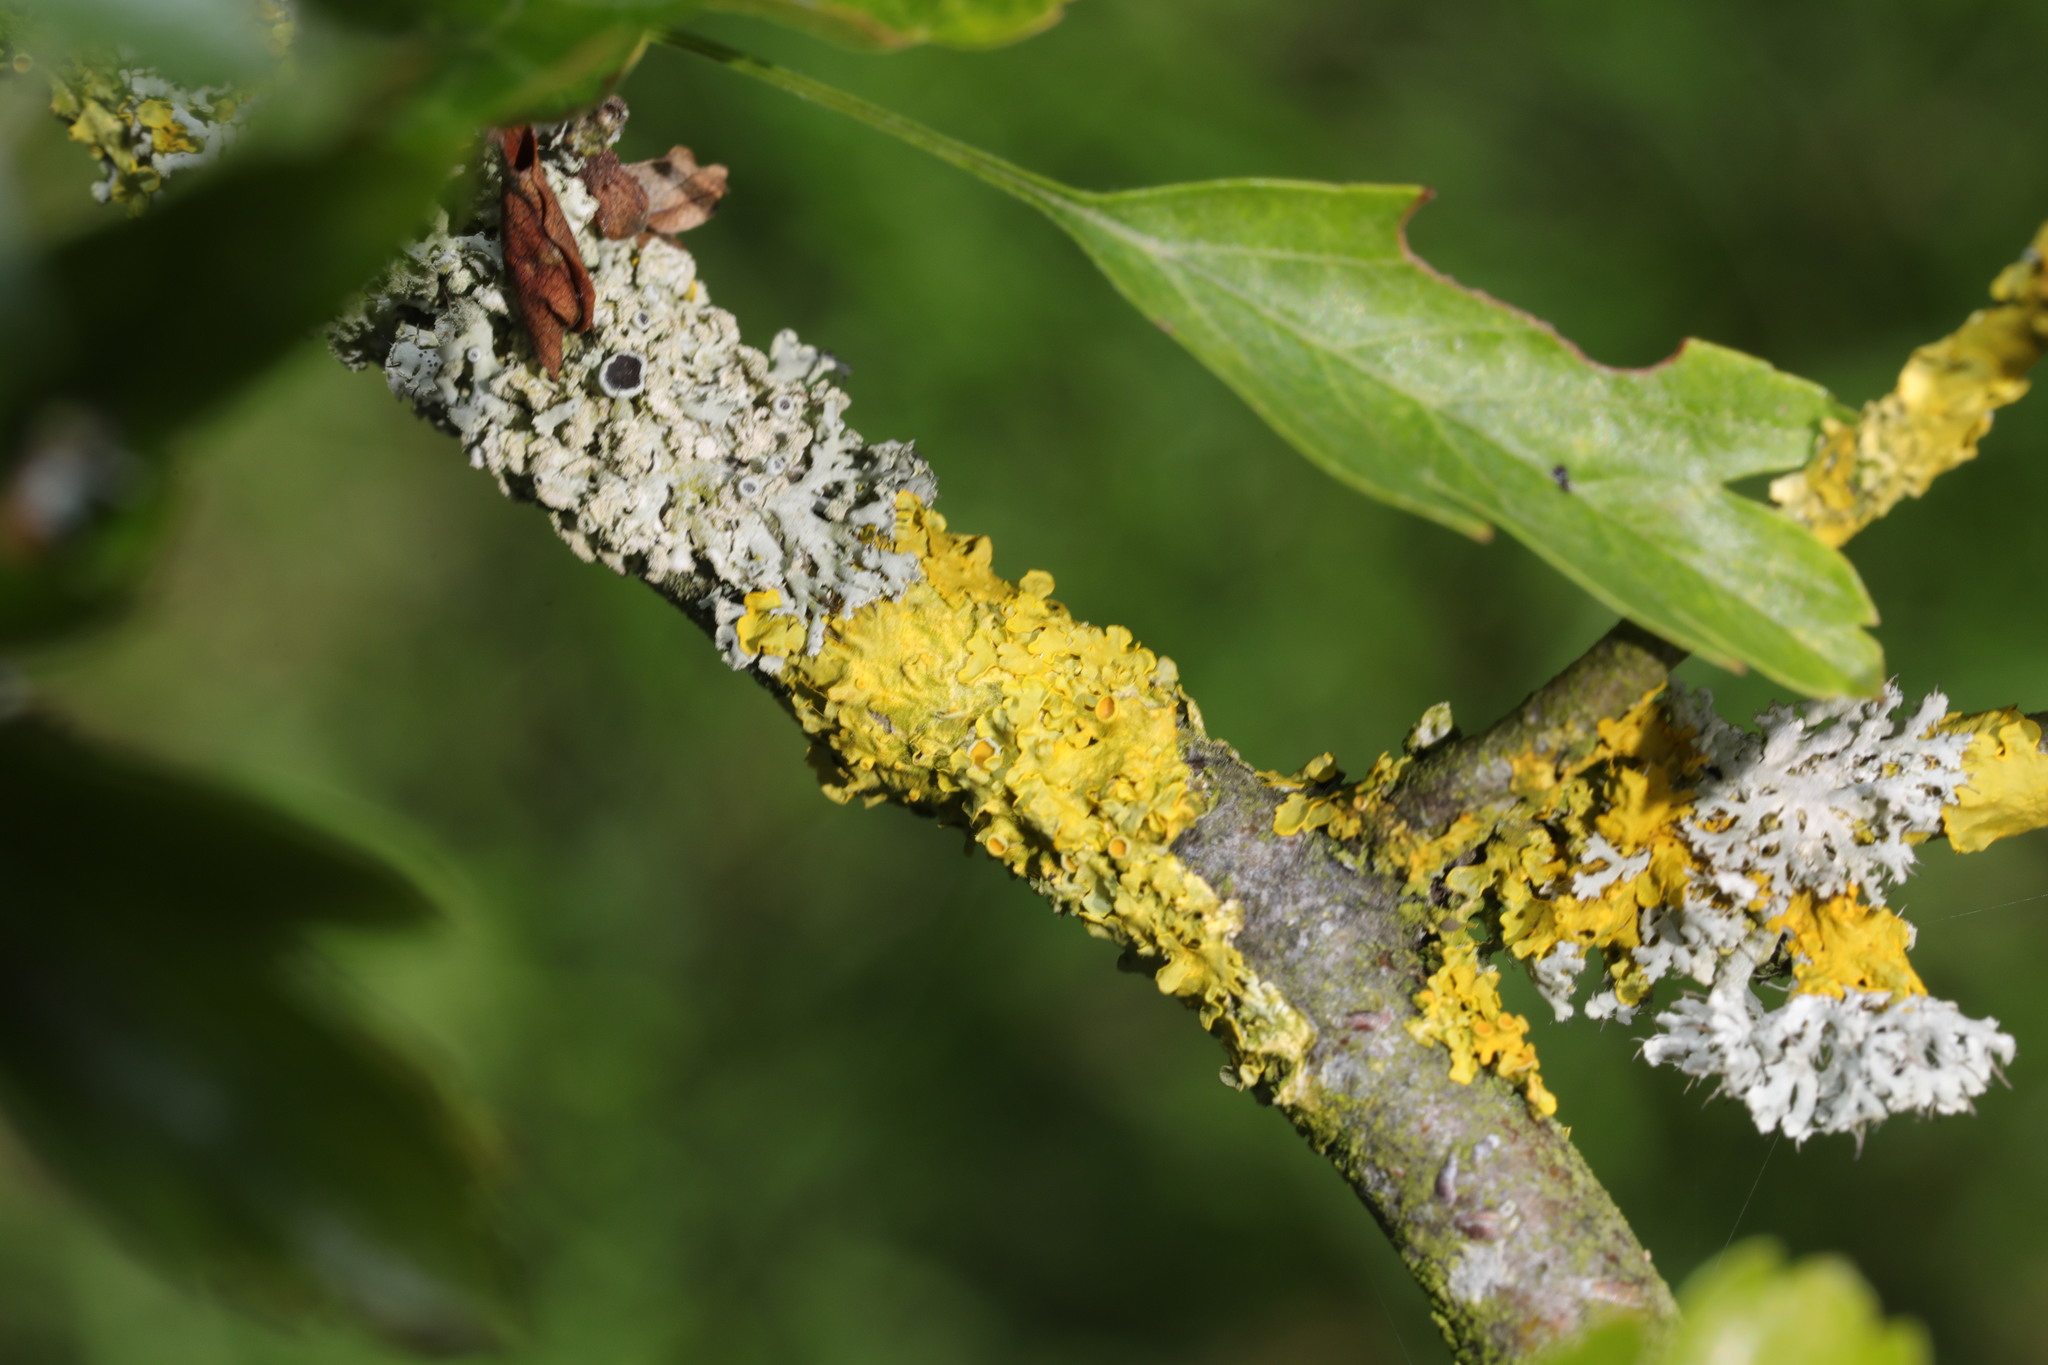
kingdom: Fungi
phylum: Ascomycota
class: Lecanoromycetes
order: Teloschistales
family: Teloschistaceae
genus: Xanthoria
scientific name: Xanthoria parietina
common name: Common orange lichen
